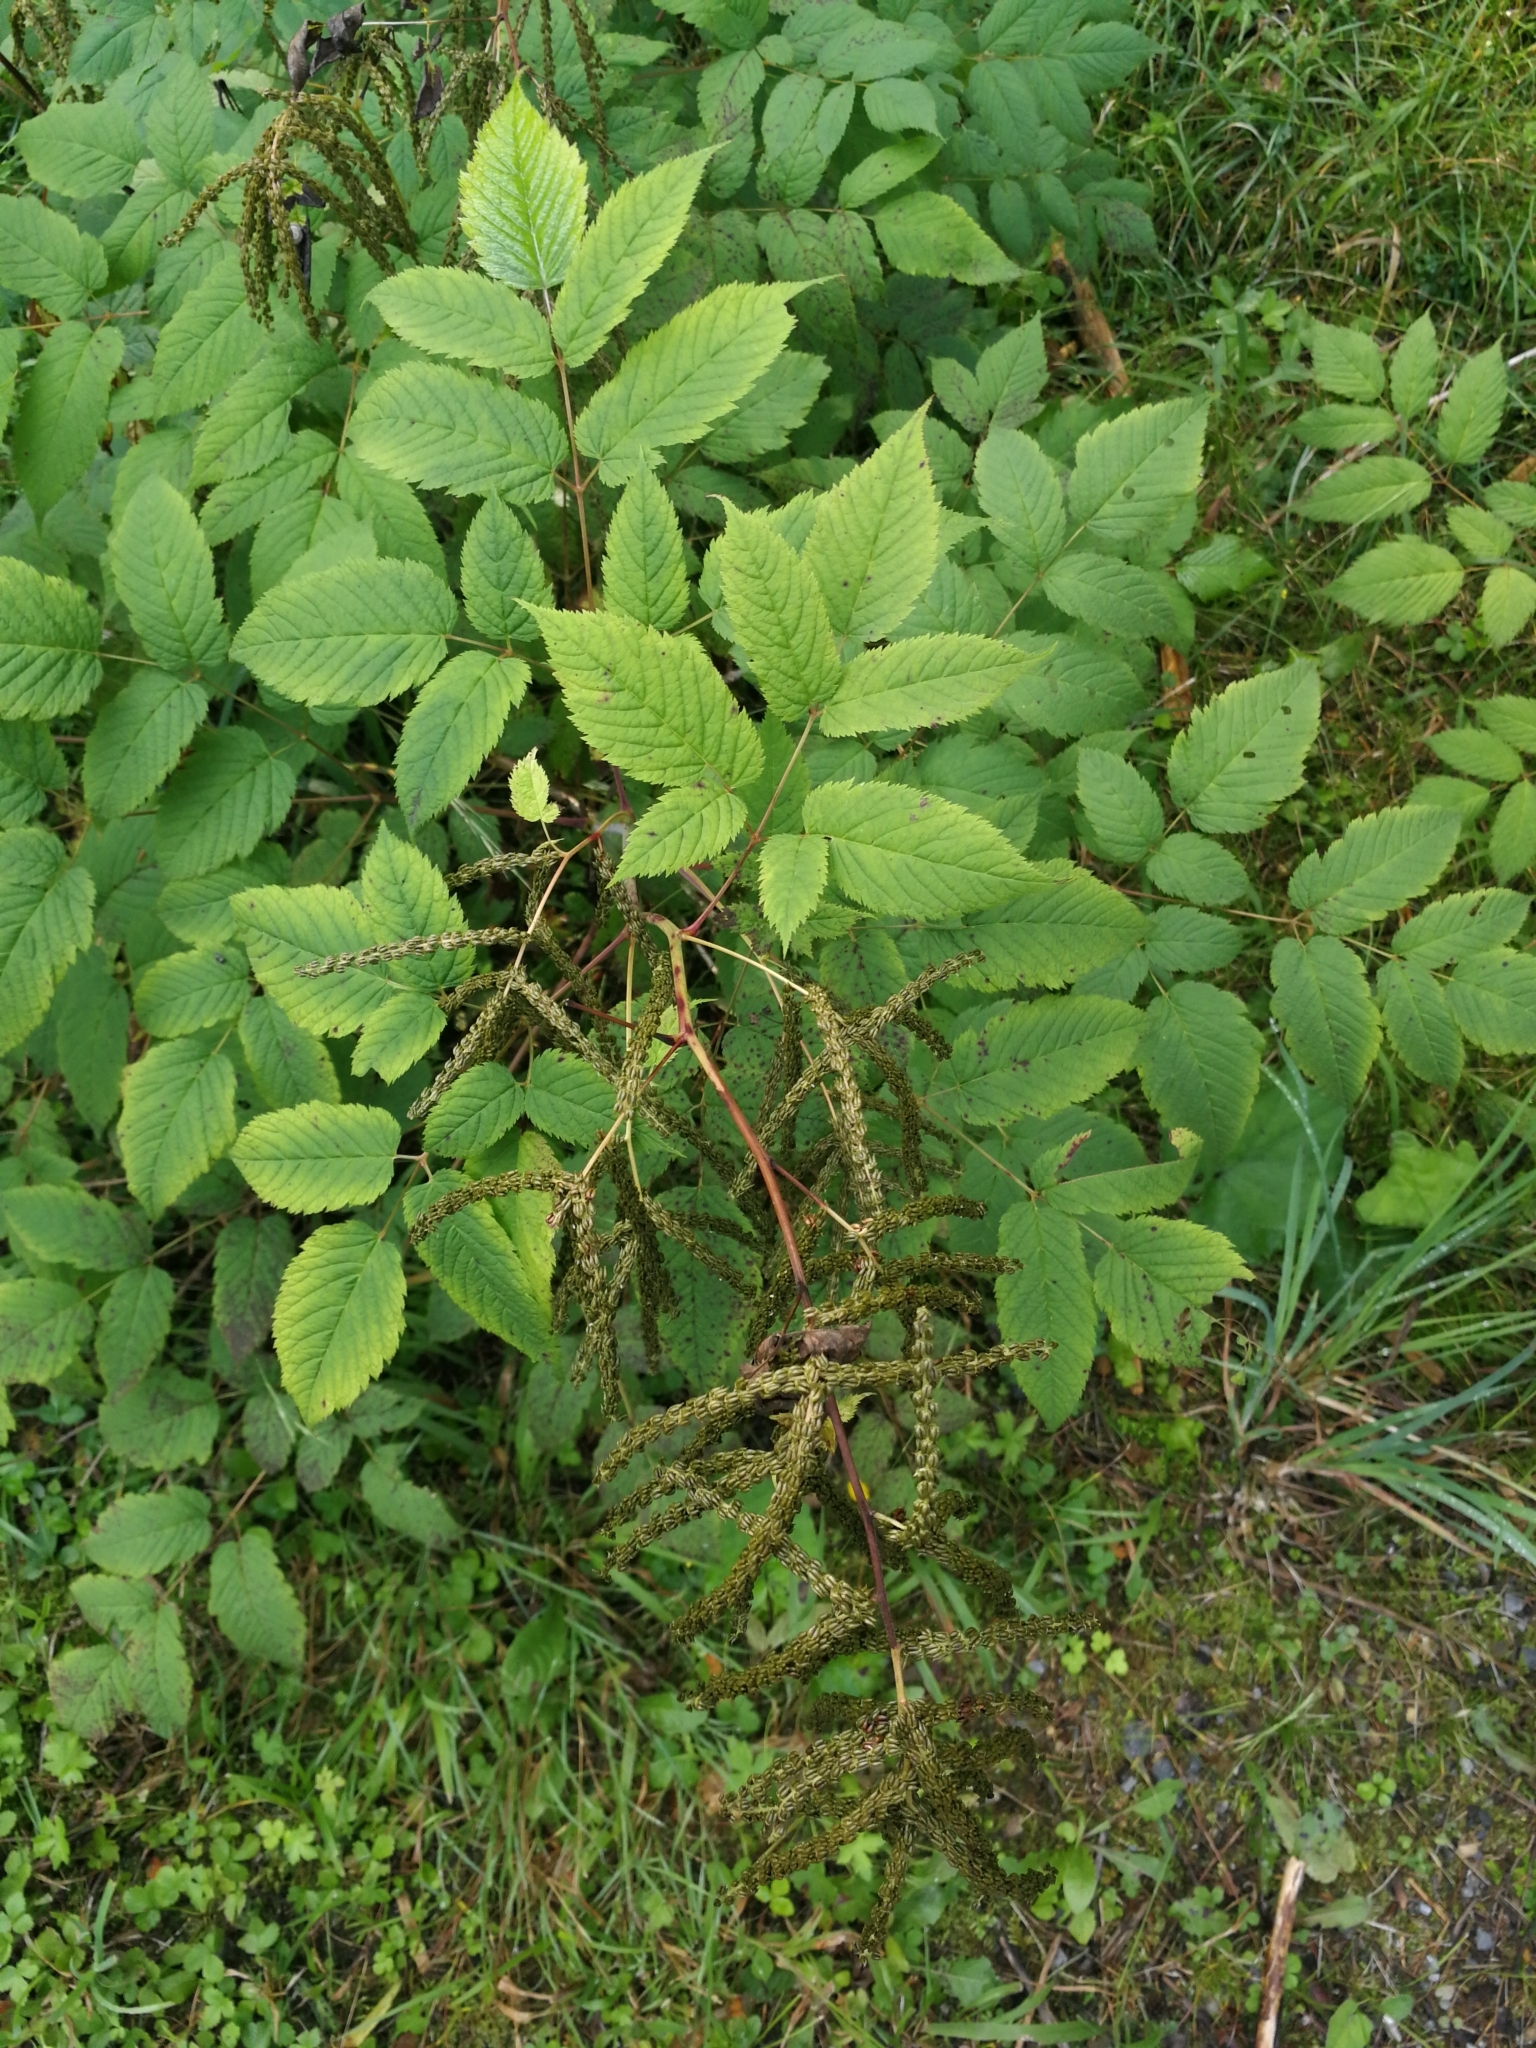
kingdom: Plantae
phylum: Tracheophyta
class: Magnoliopsida
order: Rosales
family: Rosaceae
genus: Aruncus
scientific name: Aruncus dioicus
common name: Buck's-beard
